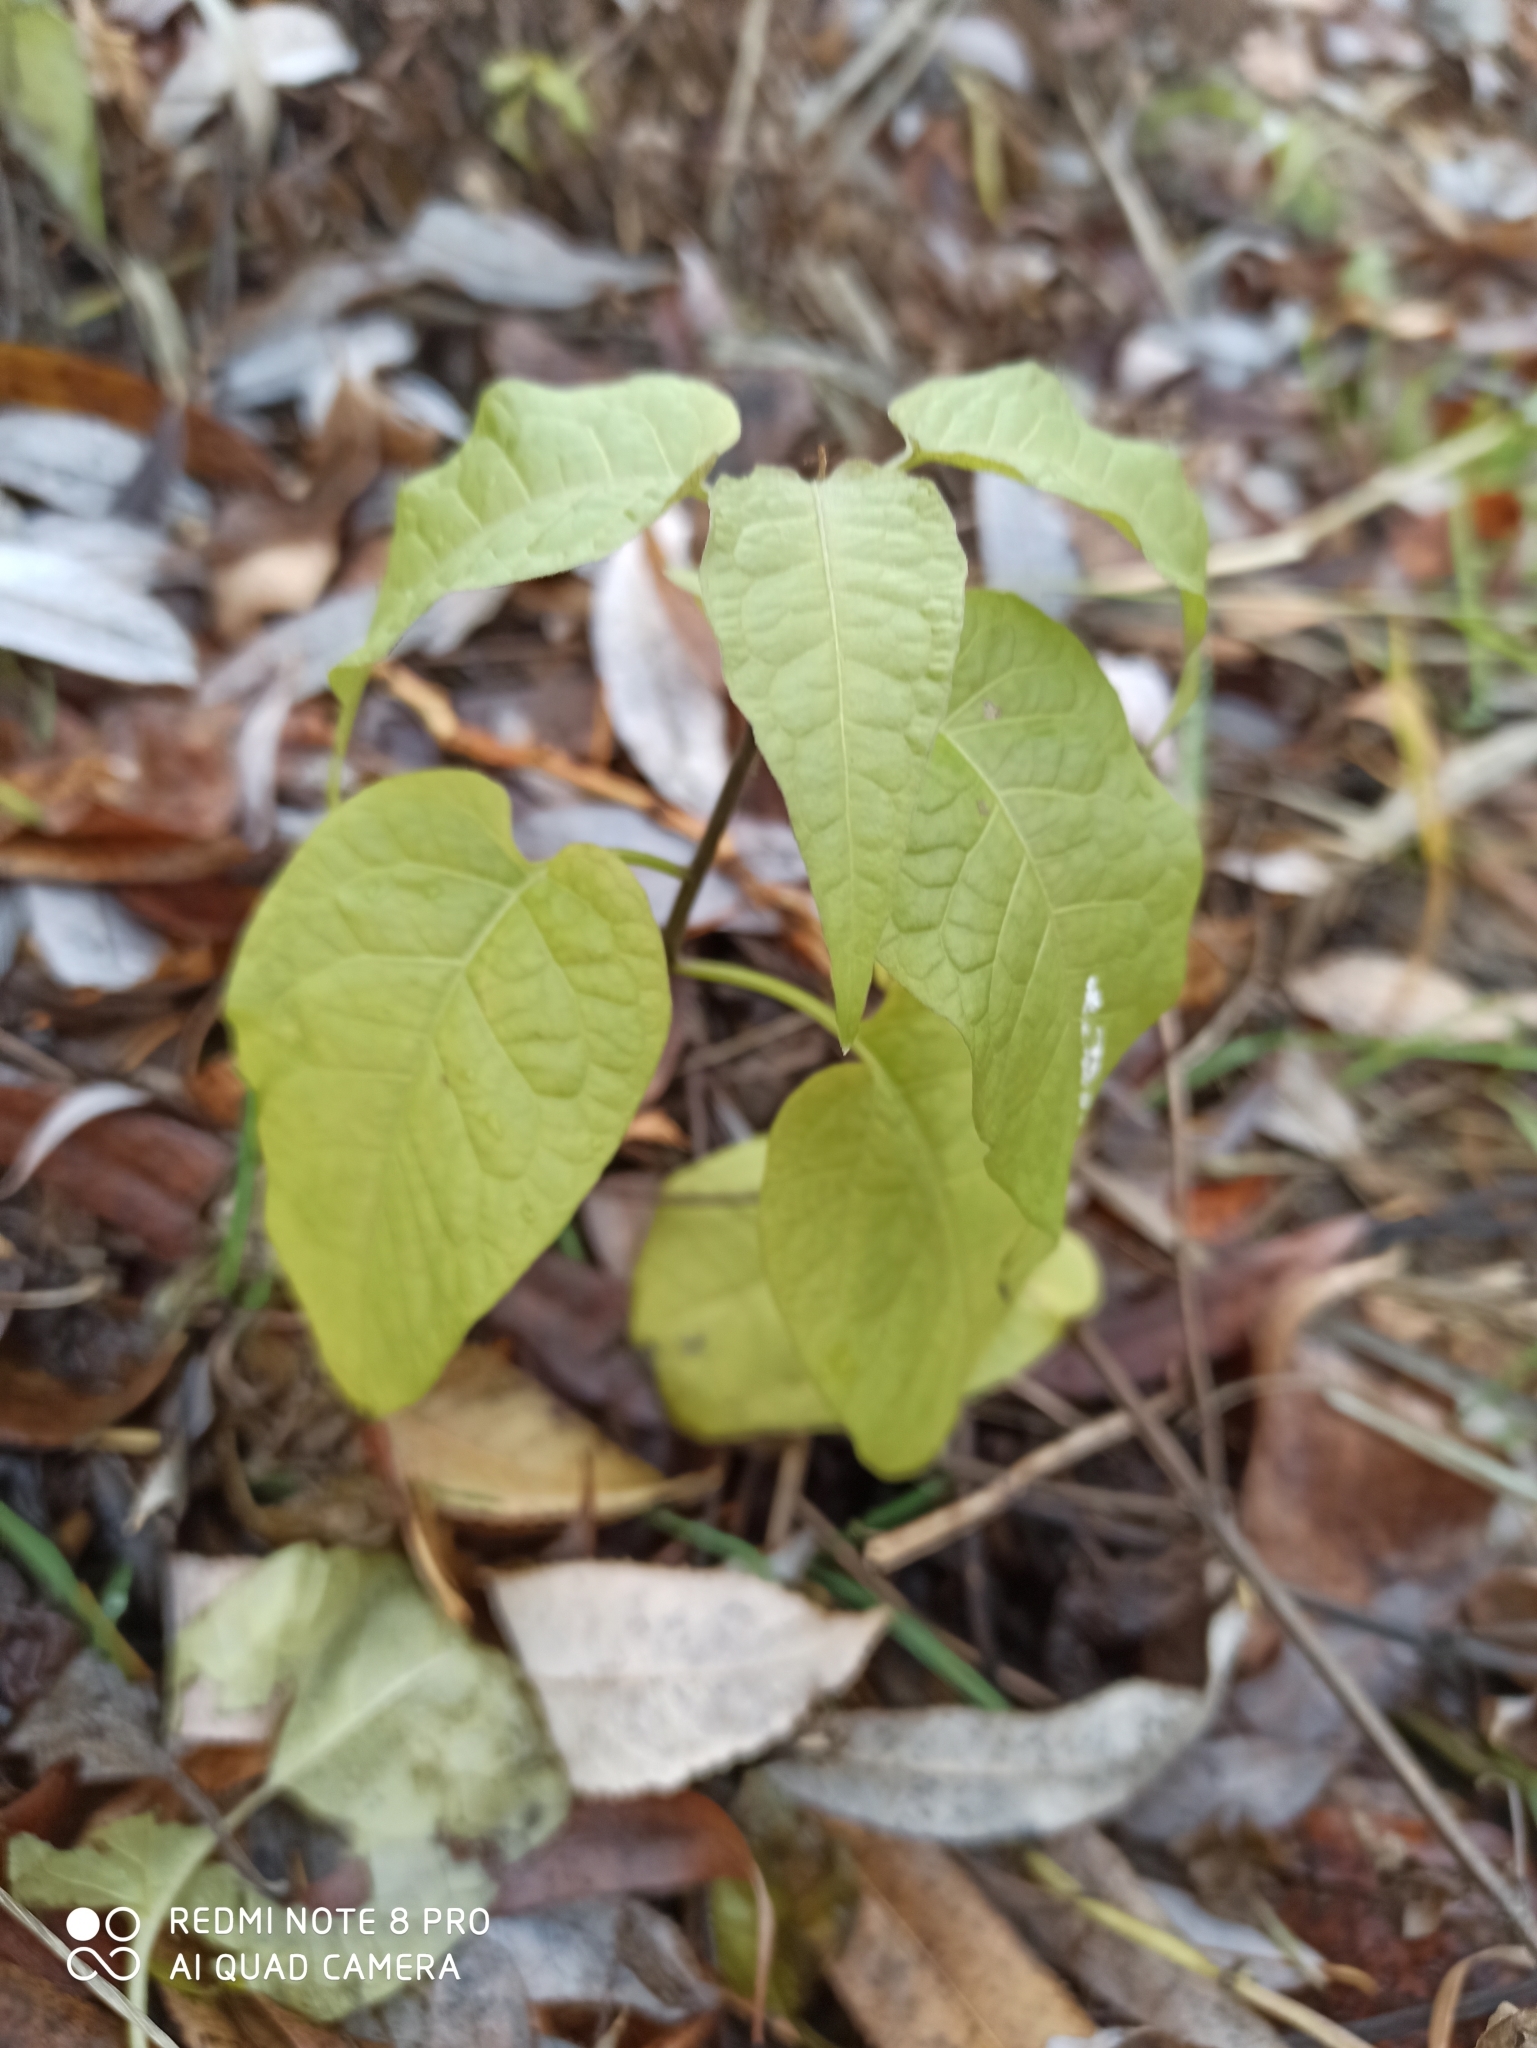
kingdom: Plantae
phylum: Tracheophyta
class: Magnoliopsida
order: Solanales
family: Solanaceae
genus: Solanum
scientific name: Solanum dulcamara
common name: Climbing nightshade
